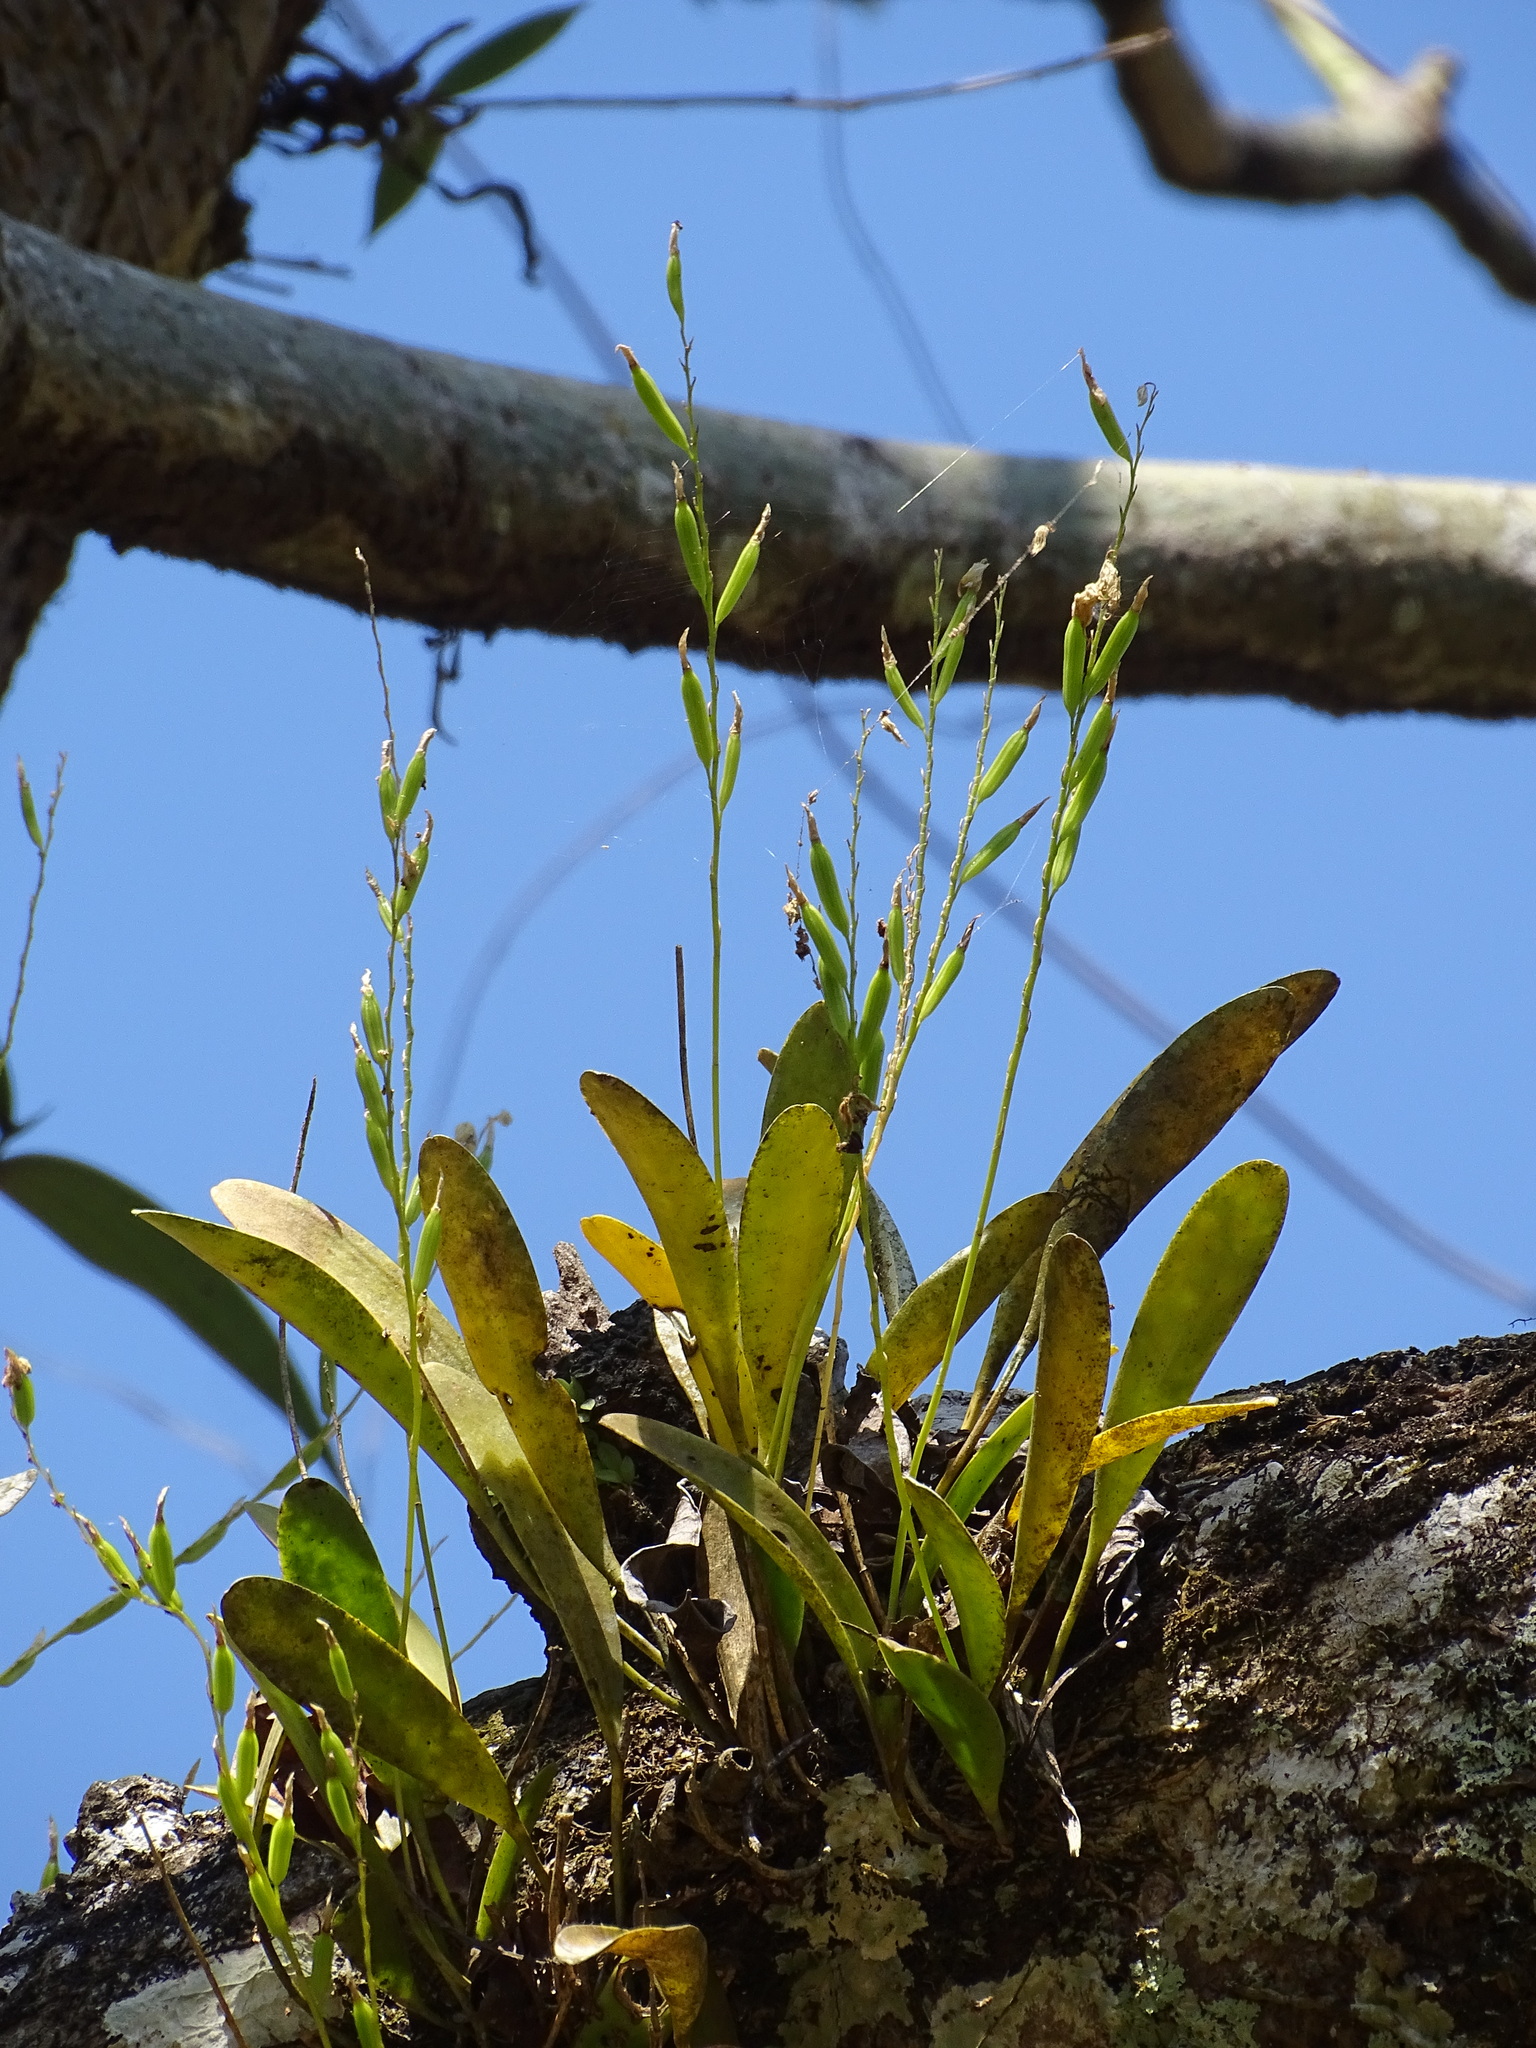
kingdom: Plantae
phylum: Tracheophyta
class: Liliopsida
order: Asparagales
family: Orchidaceae
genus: Pleurothallis
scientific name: Pleurothallis quadrifida
